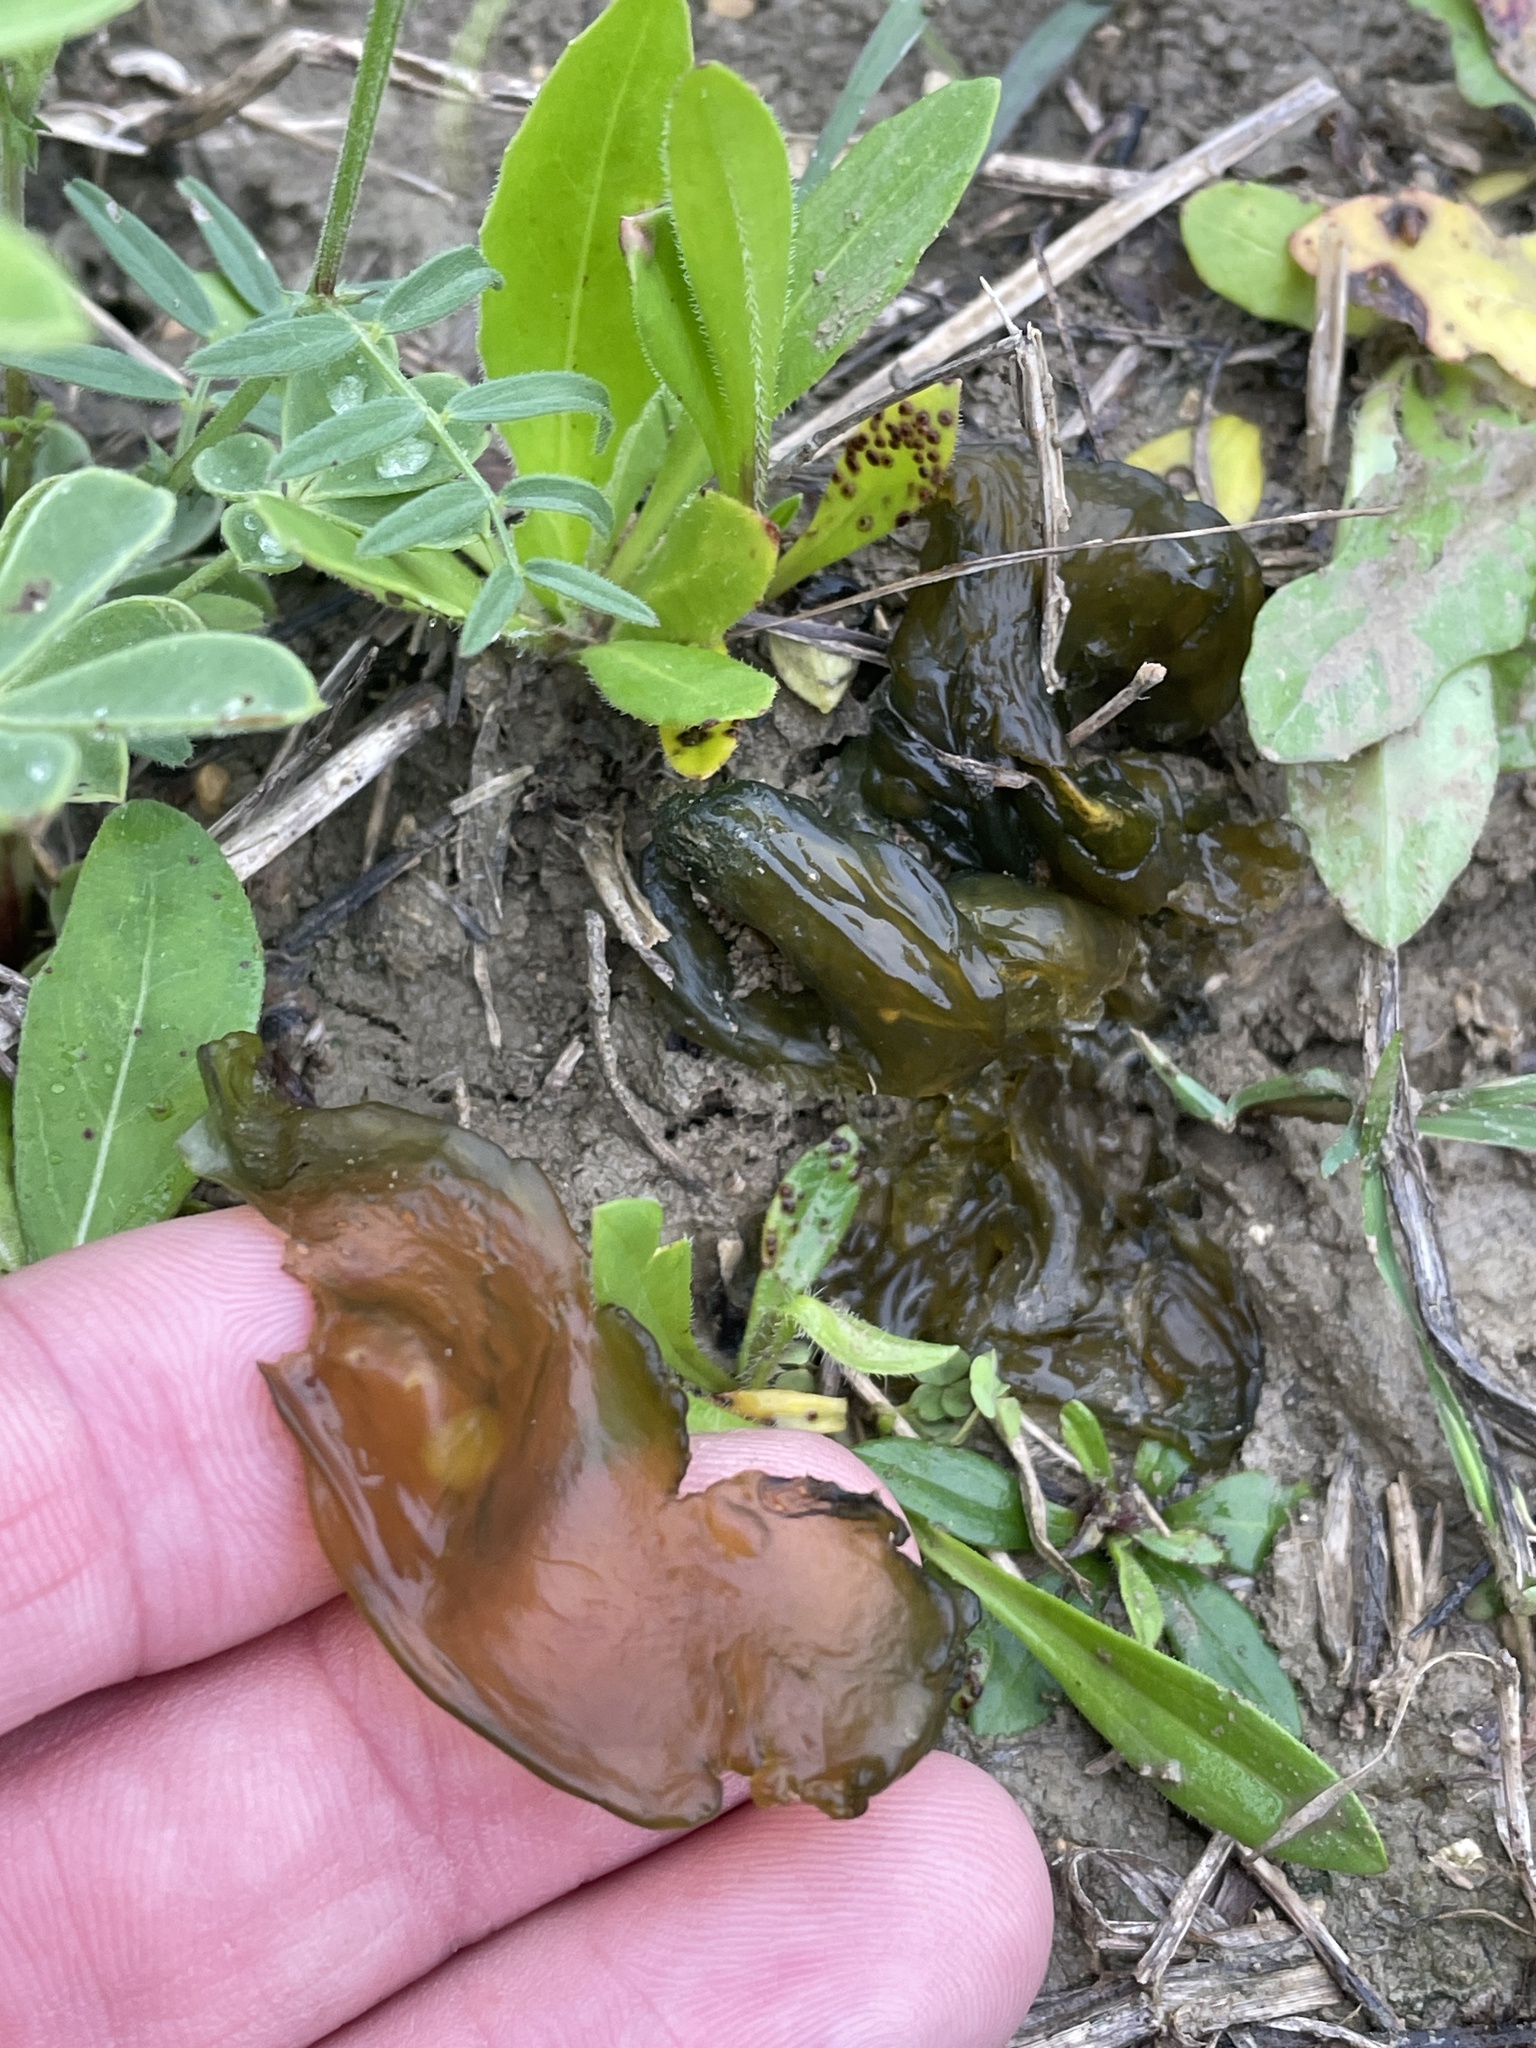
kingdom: Bacteria
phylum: Cyanobacteria
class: Cyanobacteriia
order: Cyanobacteriales
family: Nostocaceae
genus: Nostoc
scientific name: Nostoc commune
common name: Star jelly
